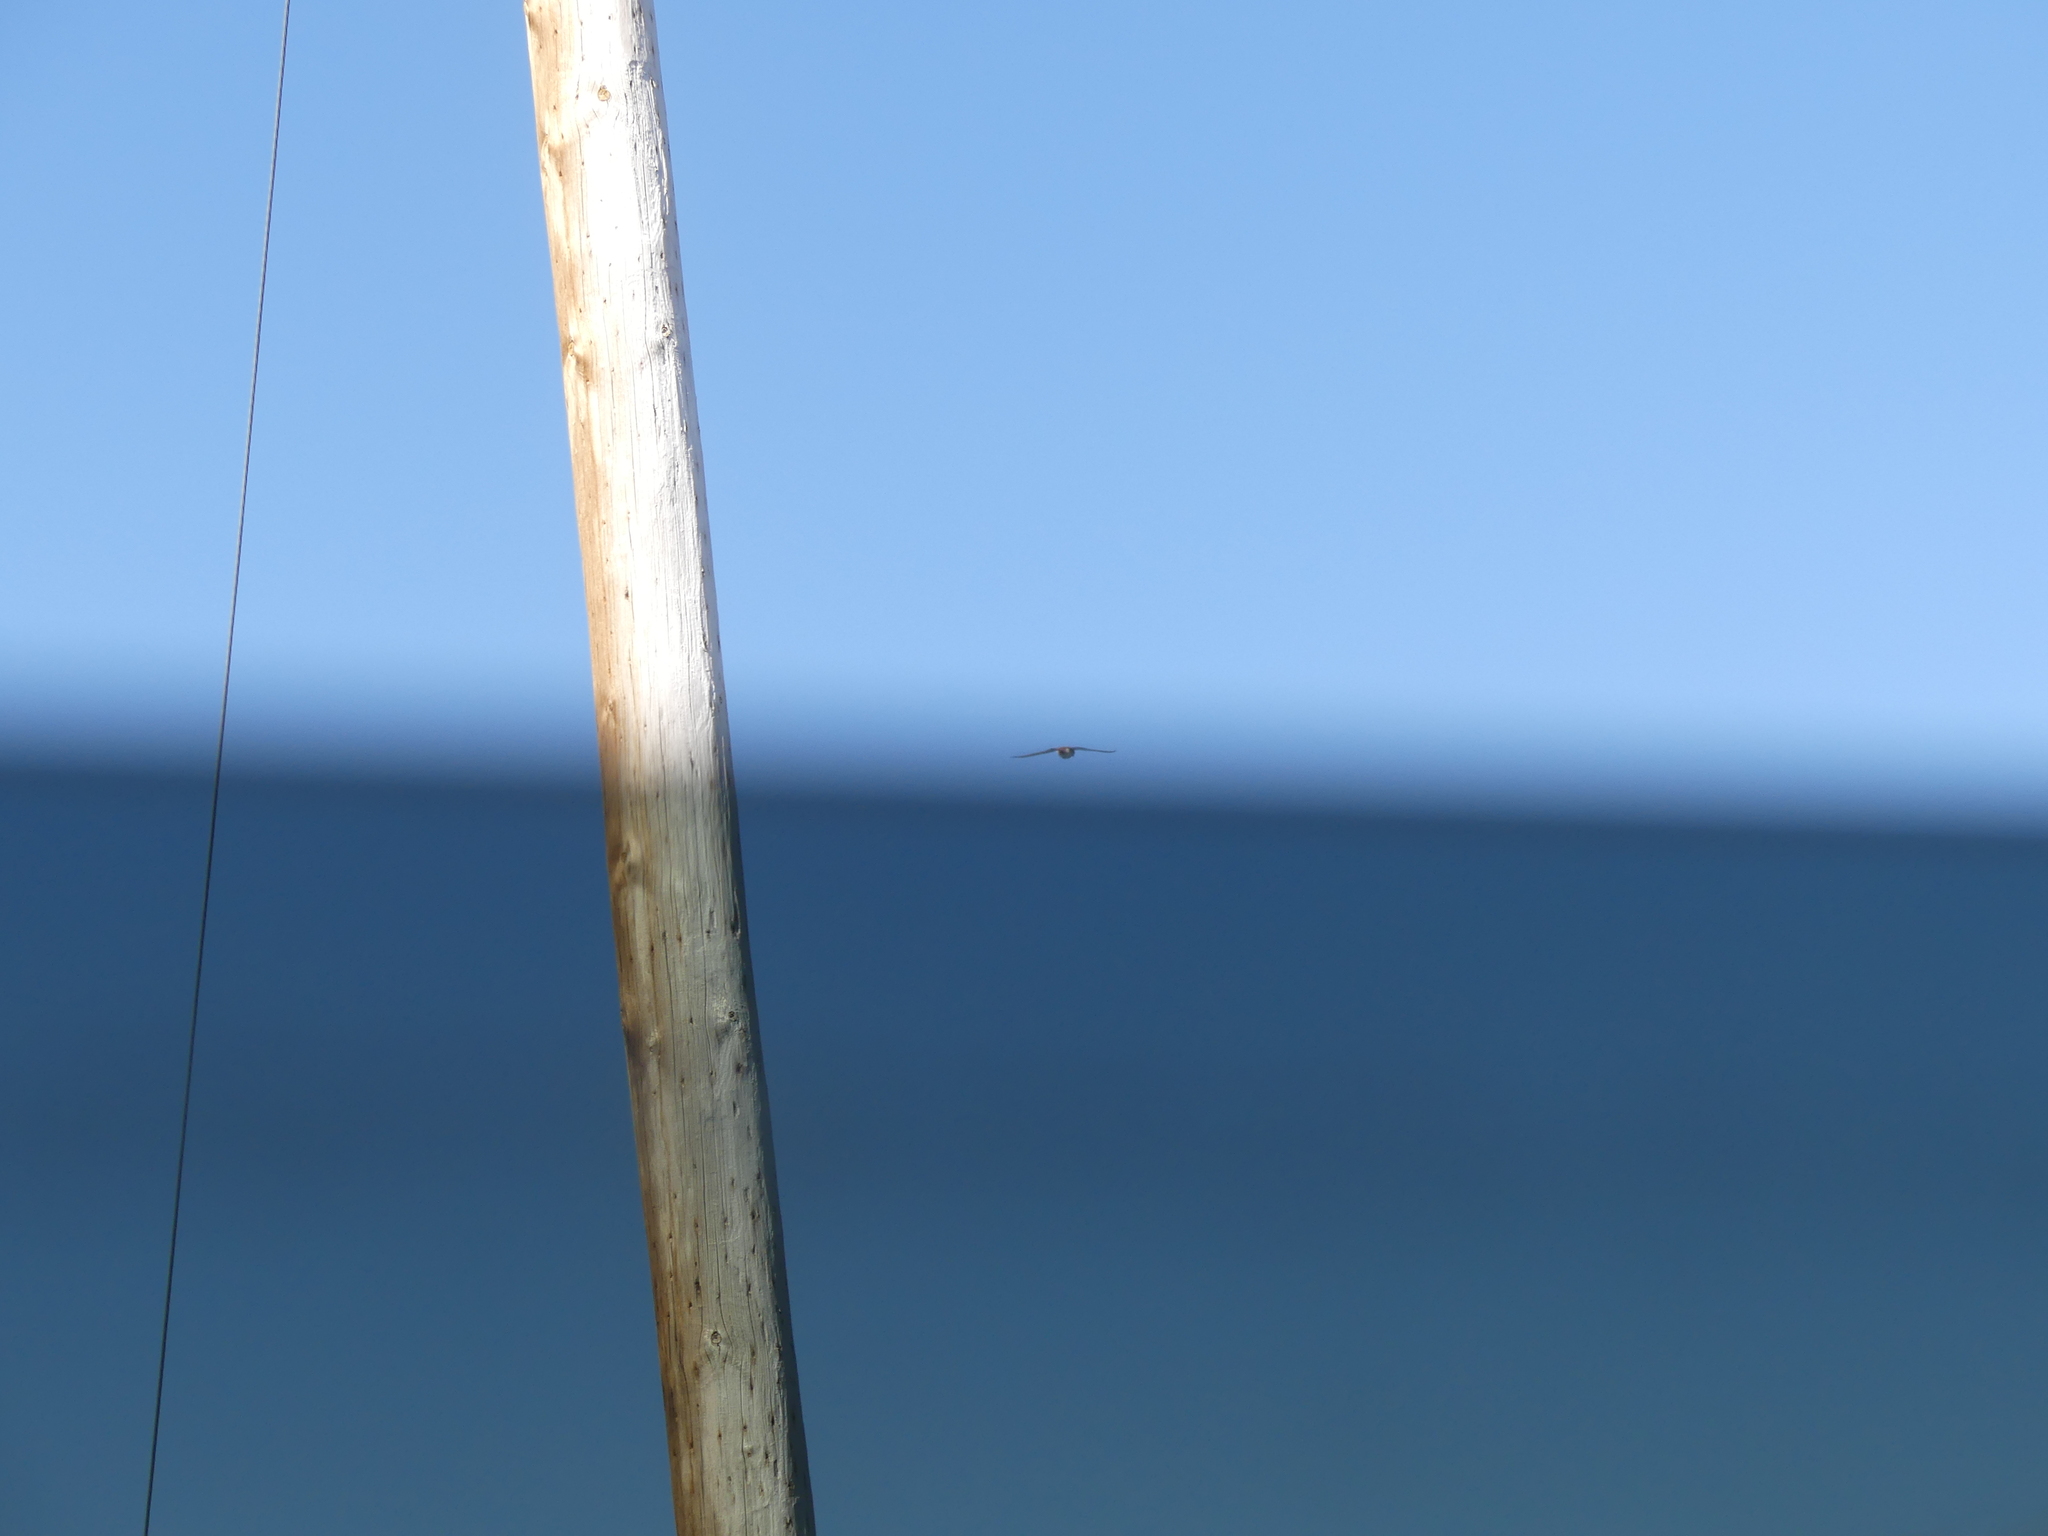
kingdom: Animalia
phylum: Chordata
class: Aves
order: Falconiformes
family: Falconidae
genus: Falco
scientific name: Falco sparverius
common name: American kestrel
